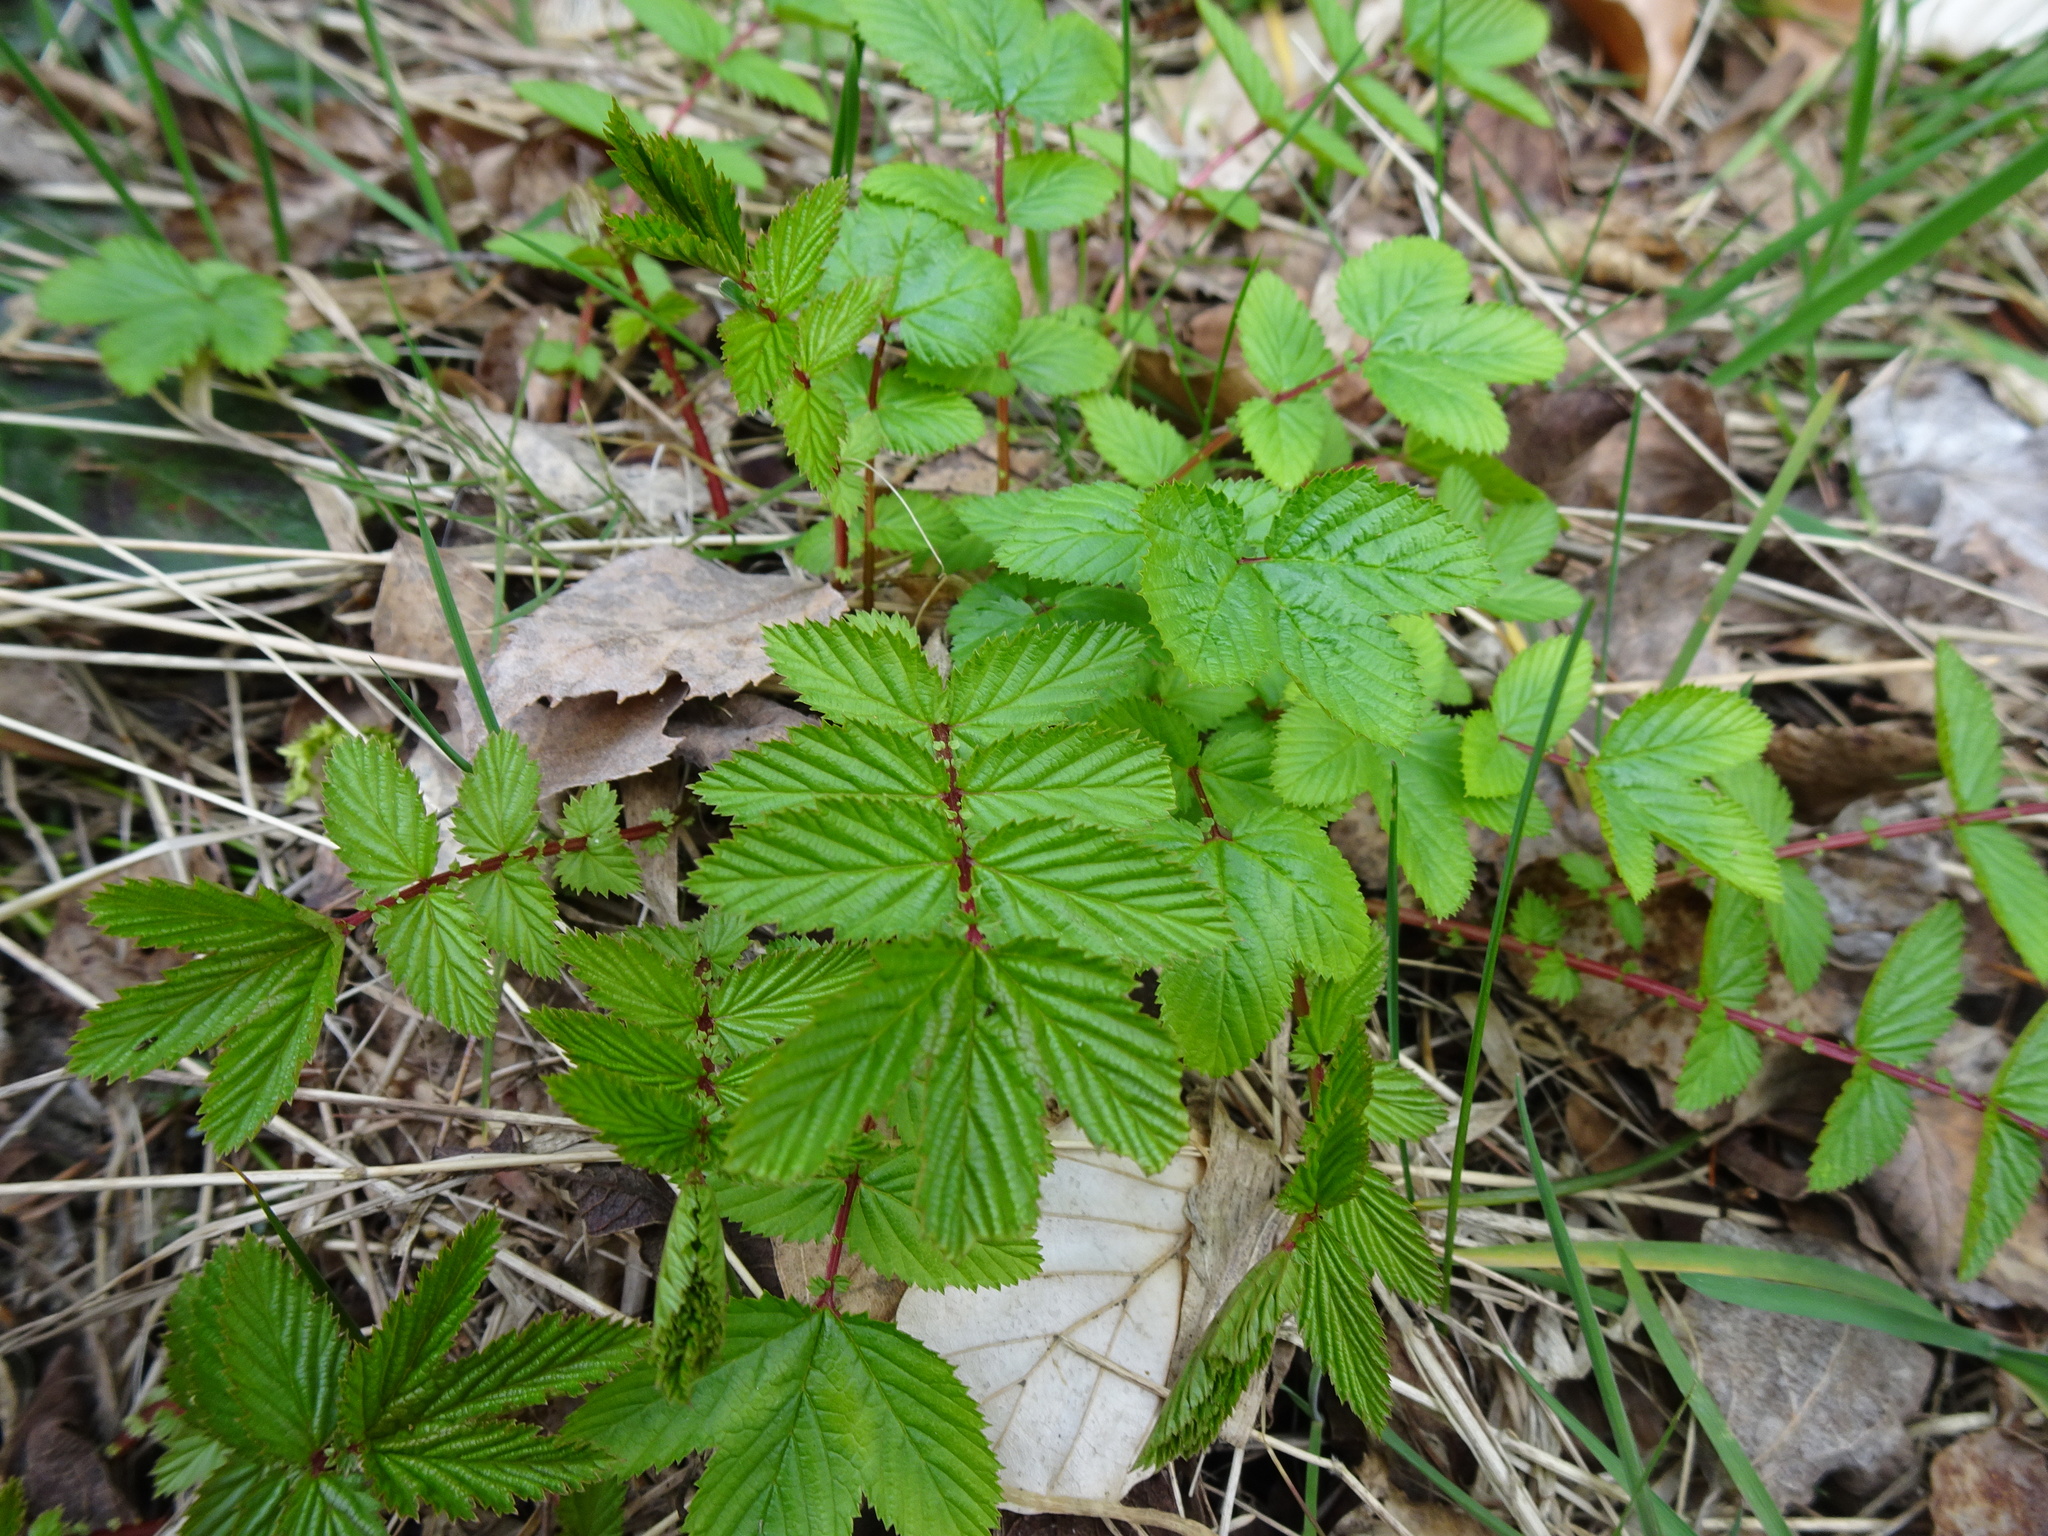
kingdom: Plantae
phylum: Tracheophyta
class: Magnoliopsida
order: Rosales
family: Rosaceae
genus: Filipendula
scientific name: Filipendula ulmaria
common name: Meadowsweet
